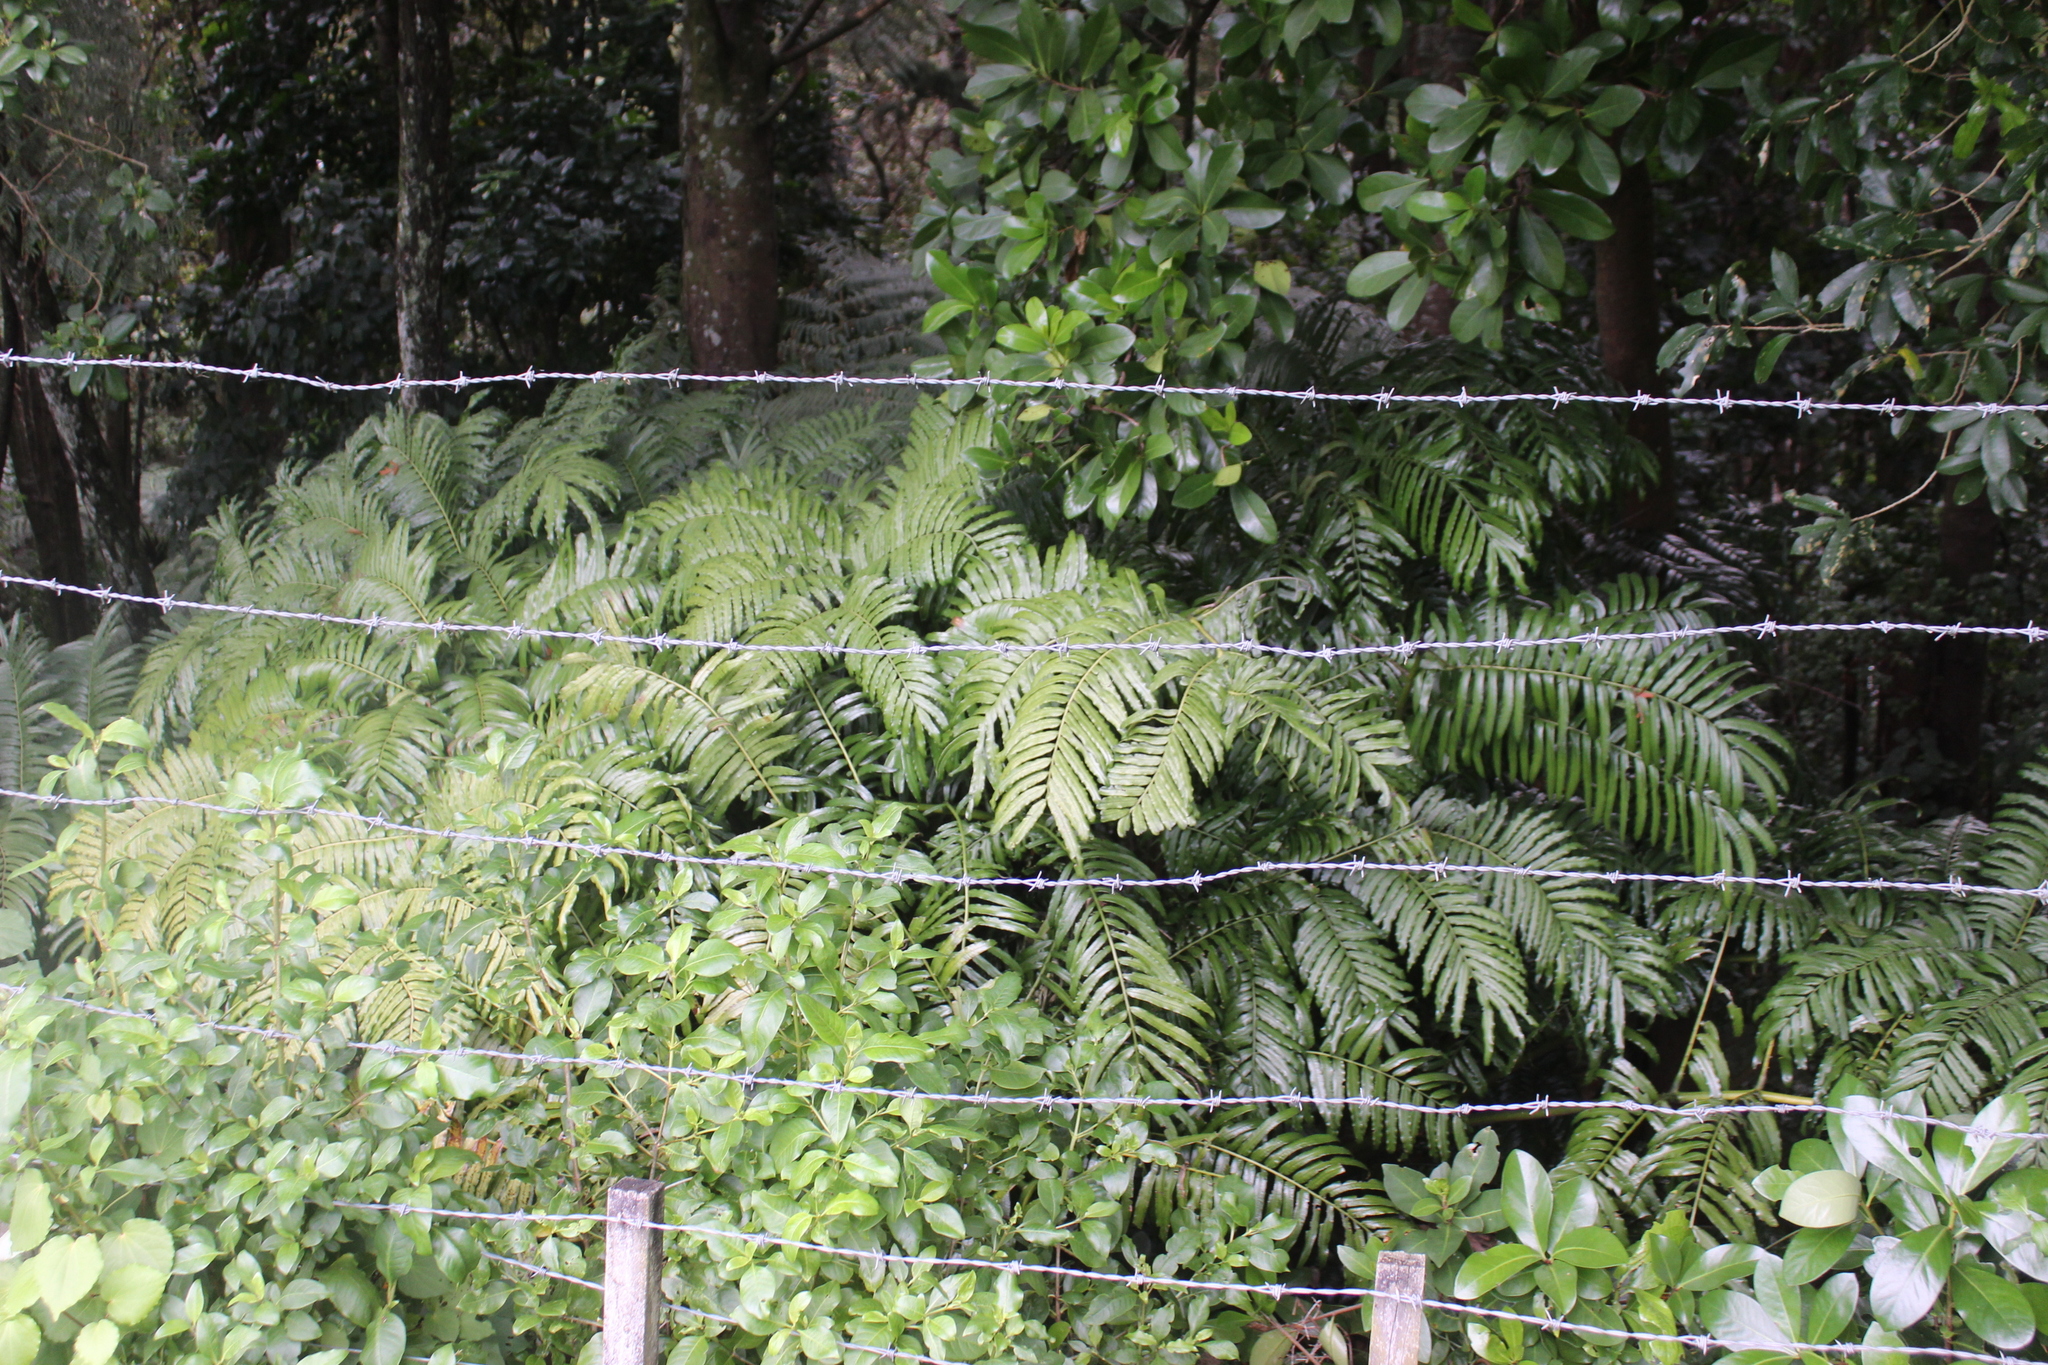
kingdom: Plantae
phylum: Tracheophyta
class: Polypodiopsida
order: Marattiales
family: Marattiaceae
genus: Ptisana
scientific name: Ptisana salicina
